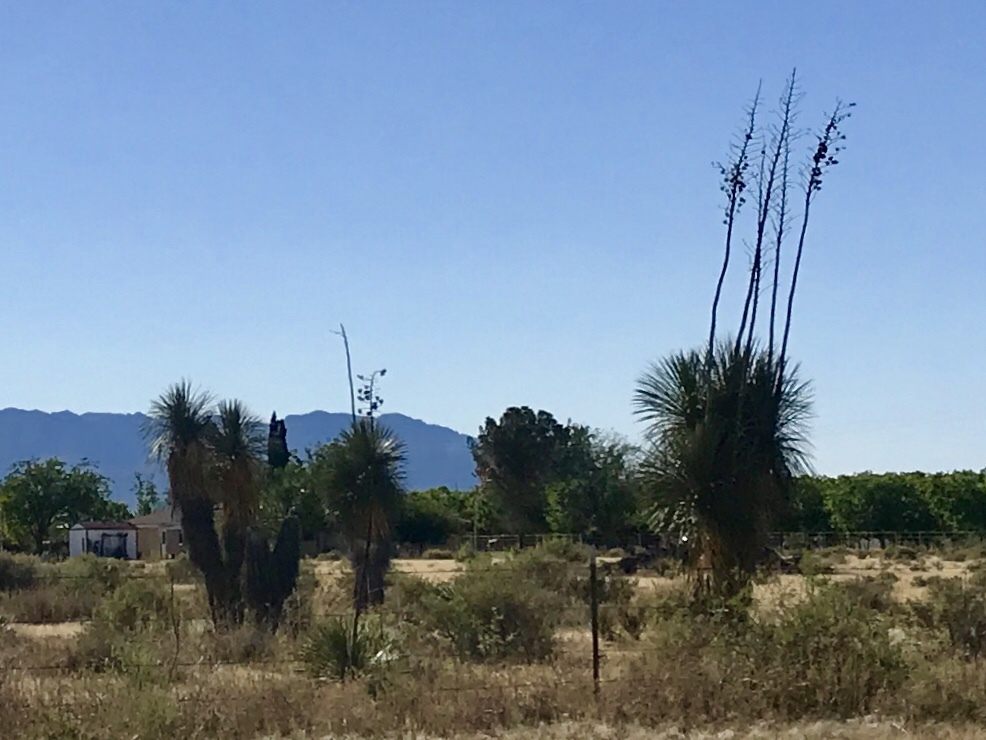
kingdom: Plantae
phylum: Tracheophyta
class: Liliopsida
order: Asparagales
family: Asparagaceae
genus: Yucca
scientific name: Yucca elata
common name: Palmella
